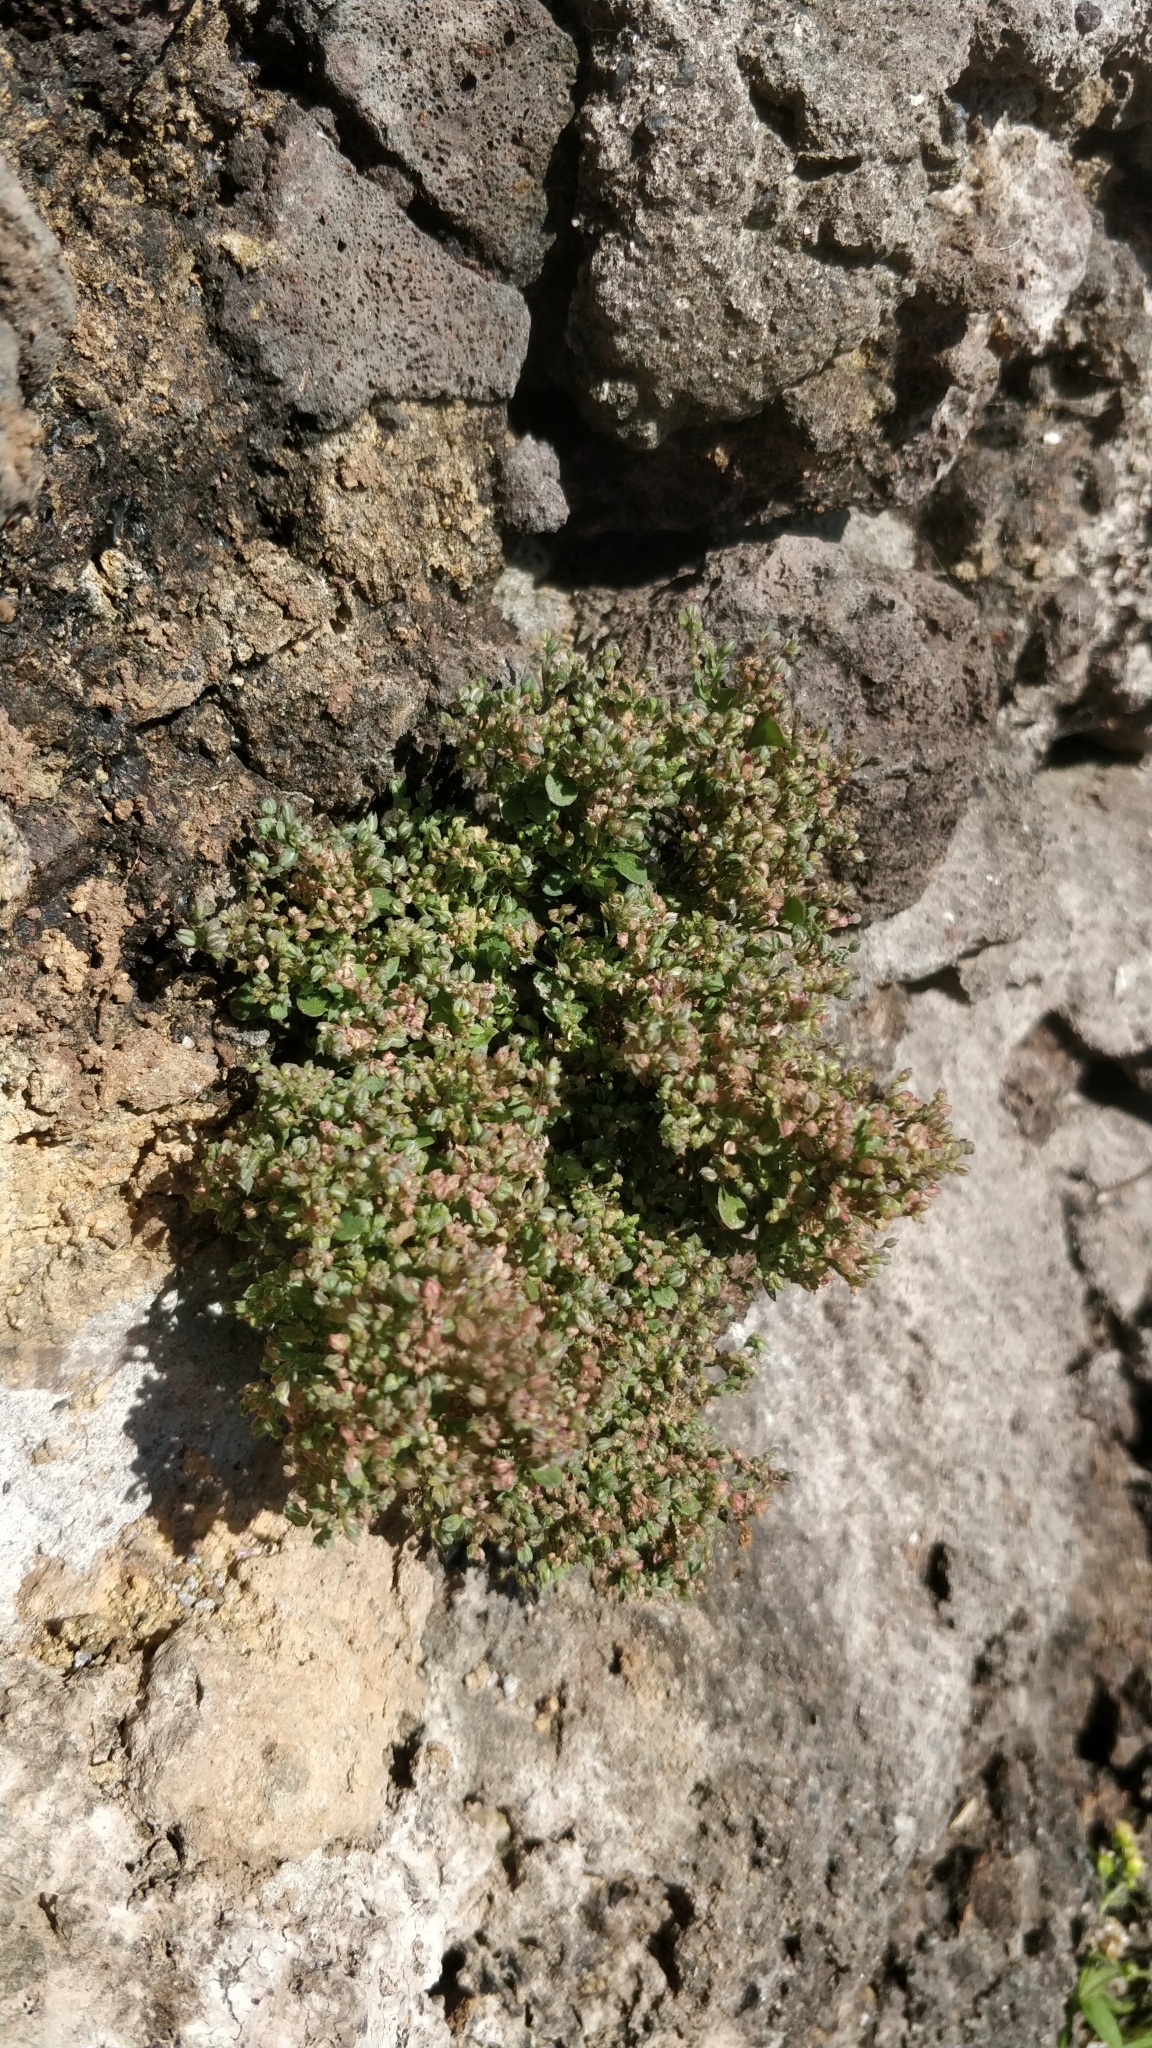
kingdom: Plantae
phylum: Tracheophyta
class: Magnoliopsida
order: Caryophyllales
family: Caryophyllaceae
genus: Polycarpon
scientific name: Polycarpon tetraphyllum
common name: Four-leaved all-seed
